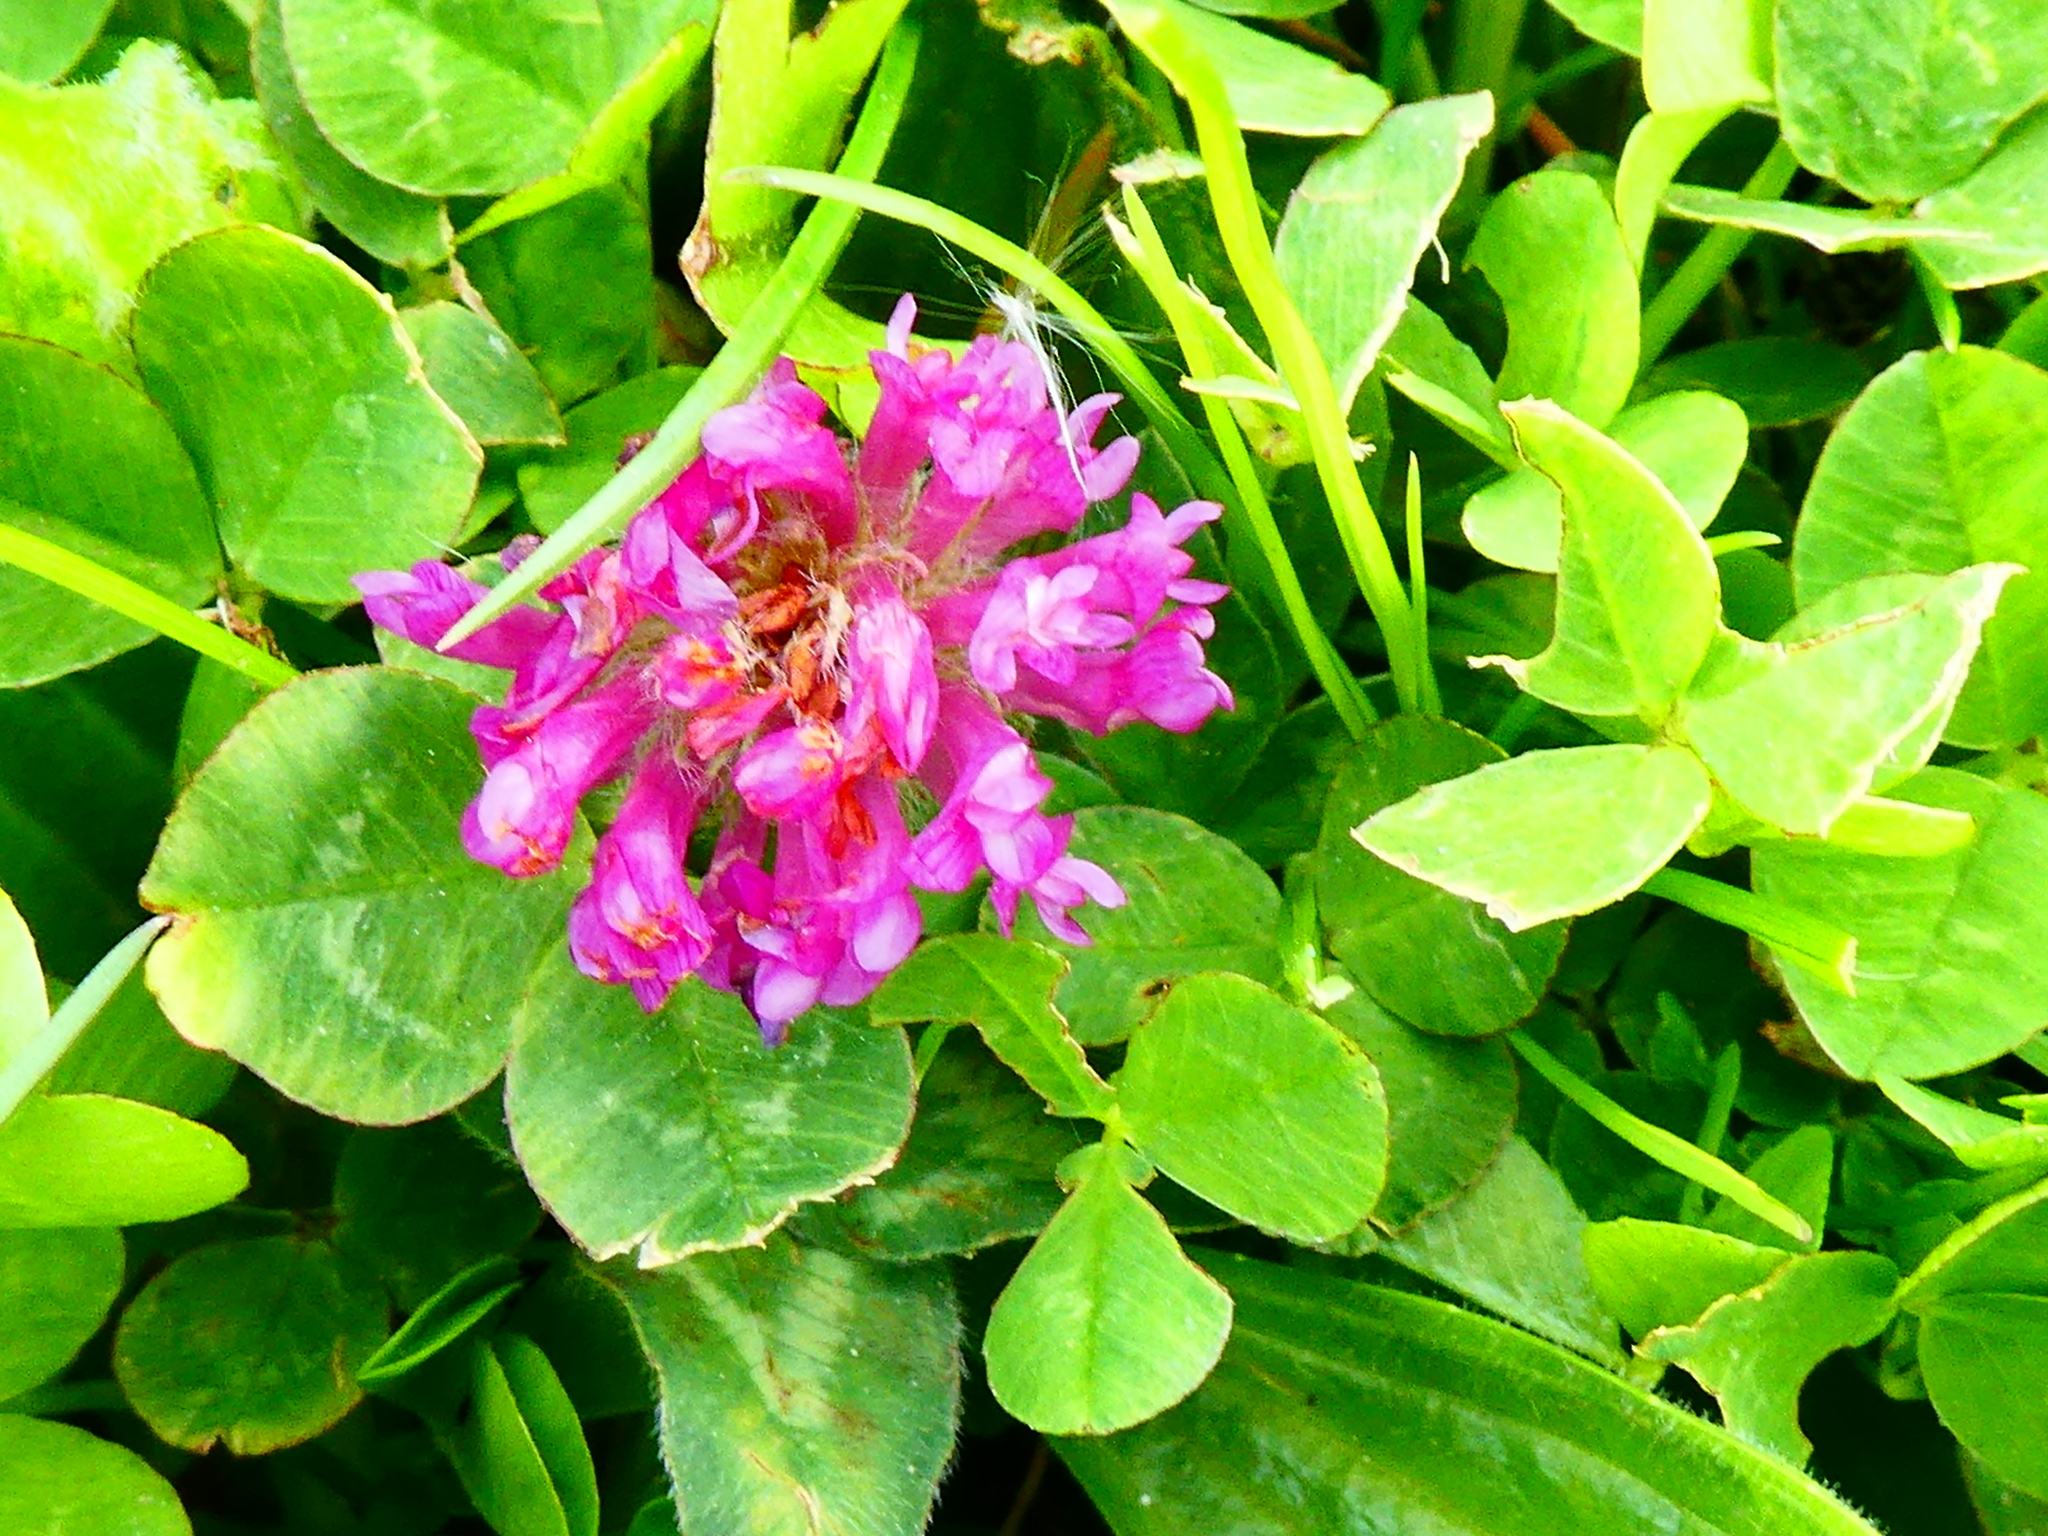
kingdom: Plantae
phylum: Tracheophyta
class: Magnoliopsida
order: Fabales
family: Fabaceae
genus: Trifolium
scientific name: Trifolium pratense
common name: Red clover
